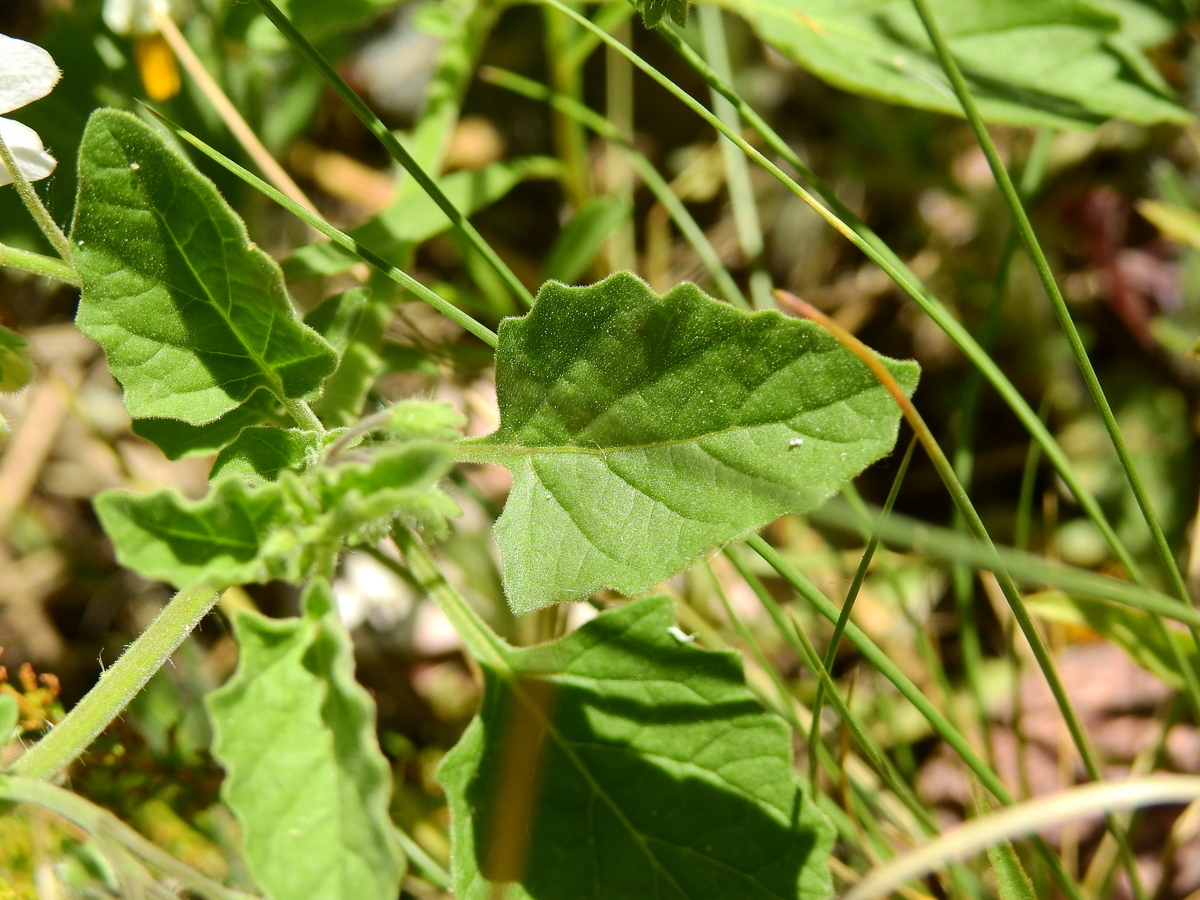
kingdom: Plantae
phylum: Tracheophyta
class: Magnoliopsida
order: Solanales
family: Solanaceae
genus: Solanum
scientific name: Solanum tweedianum
